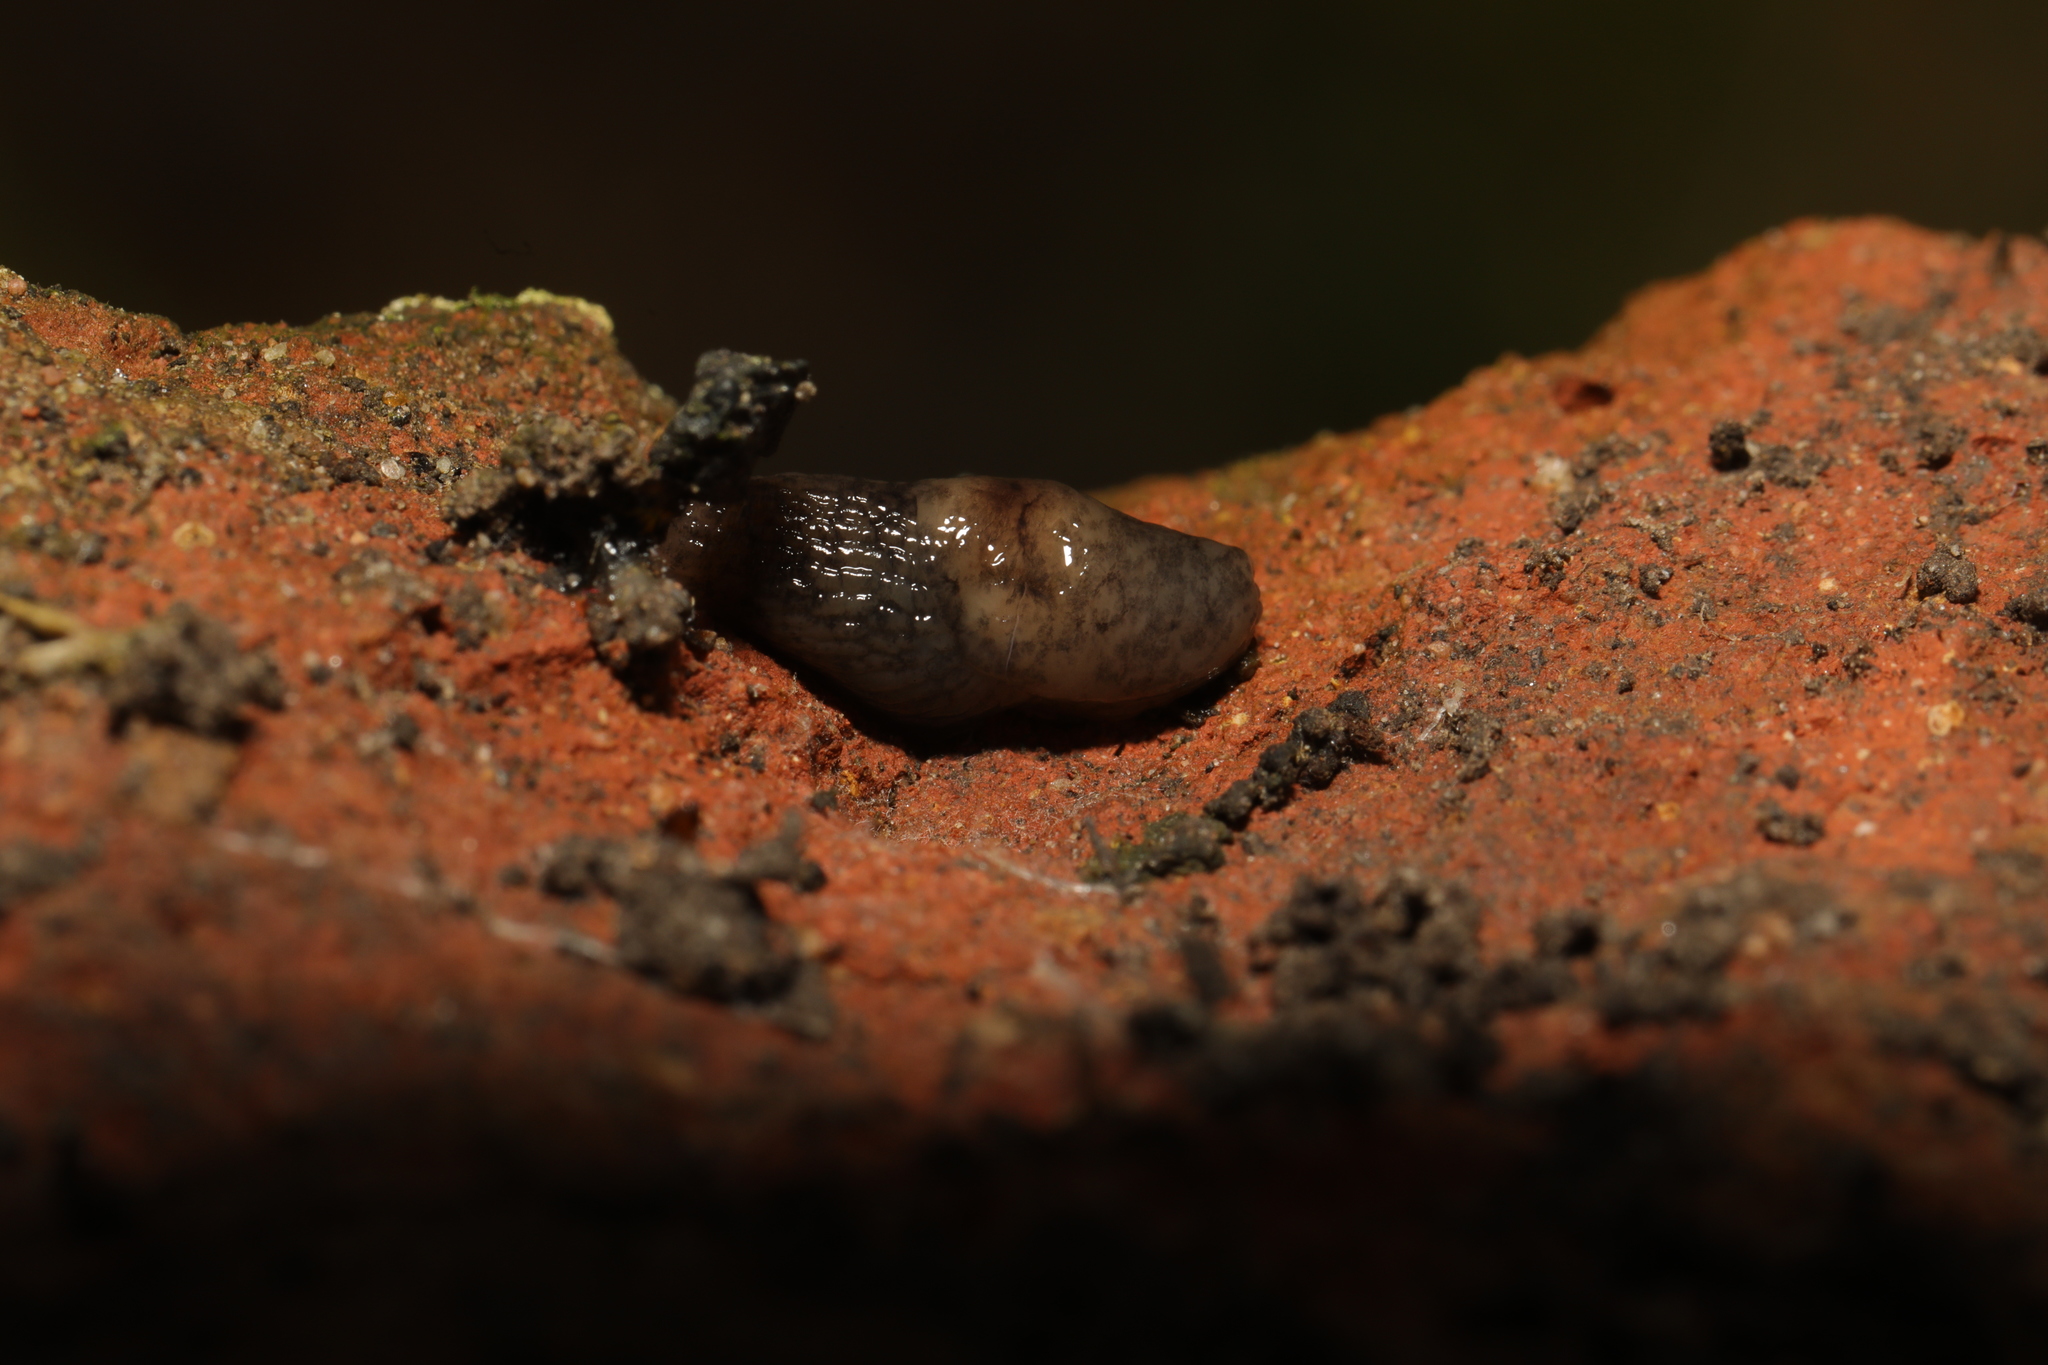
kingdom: Animalia
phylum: Mollusca
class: Gastropoda
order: Stylommatophora
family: Agriolimacidae
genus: Deroceras
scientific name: Deroceras invadens
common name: Caruana's slug
